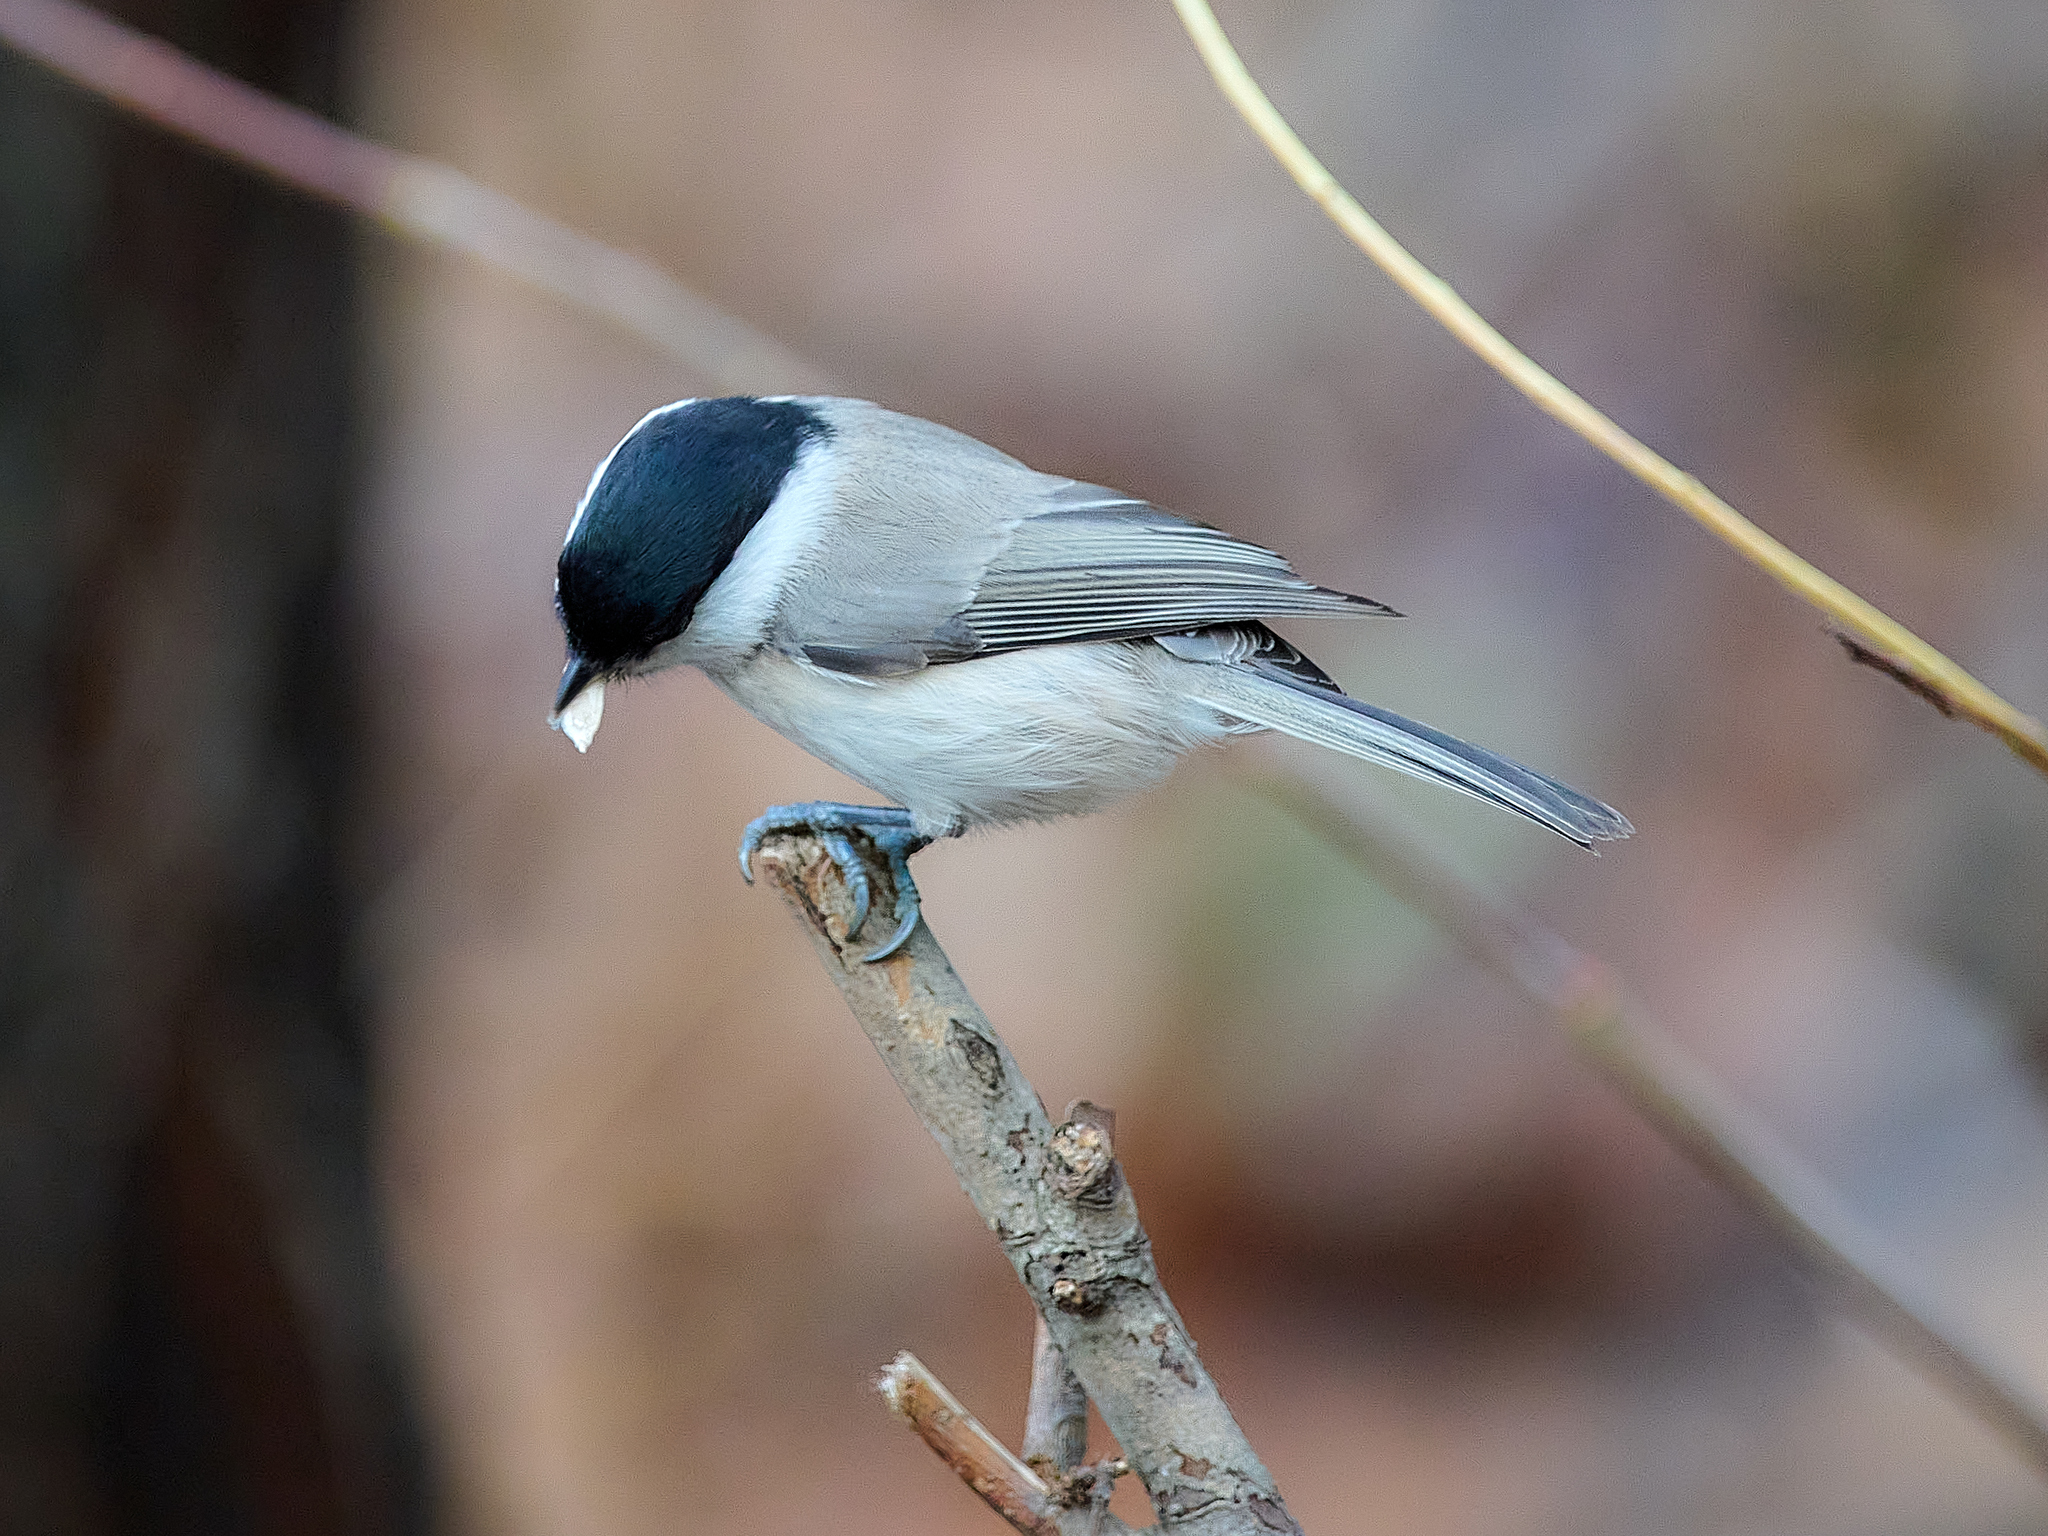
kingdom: Animalia
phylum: Chordata
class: Aves
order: Passeriformes
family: Paridae
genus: Poecile
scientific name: Poecile palustris
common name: Marsh tit
